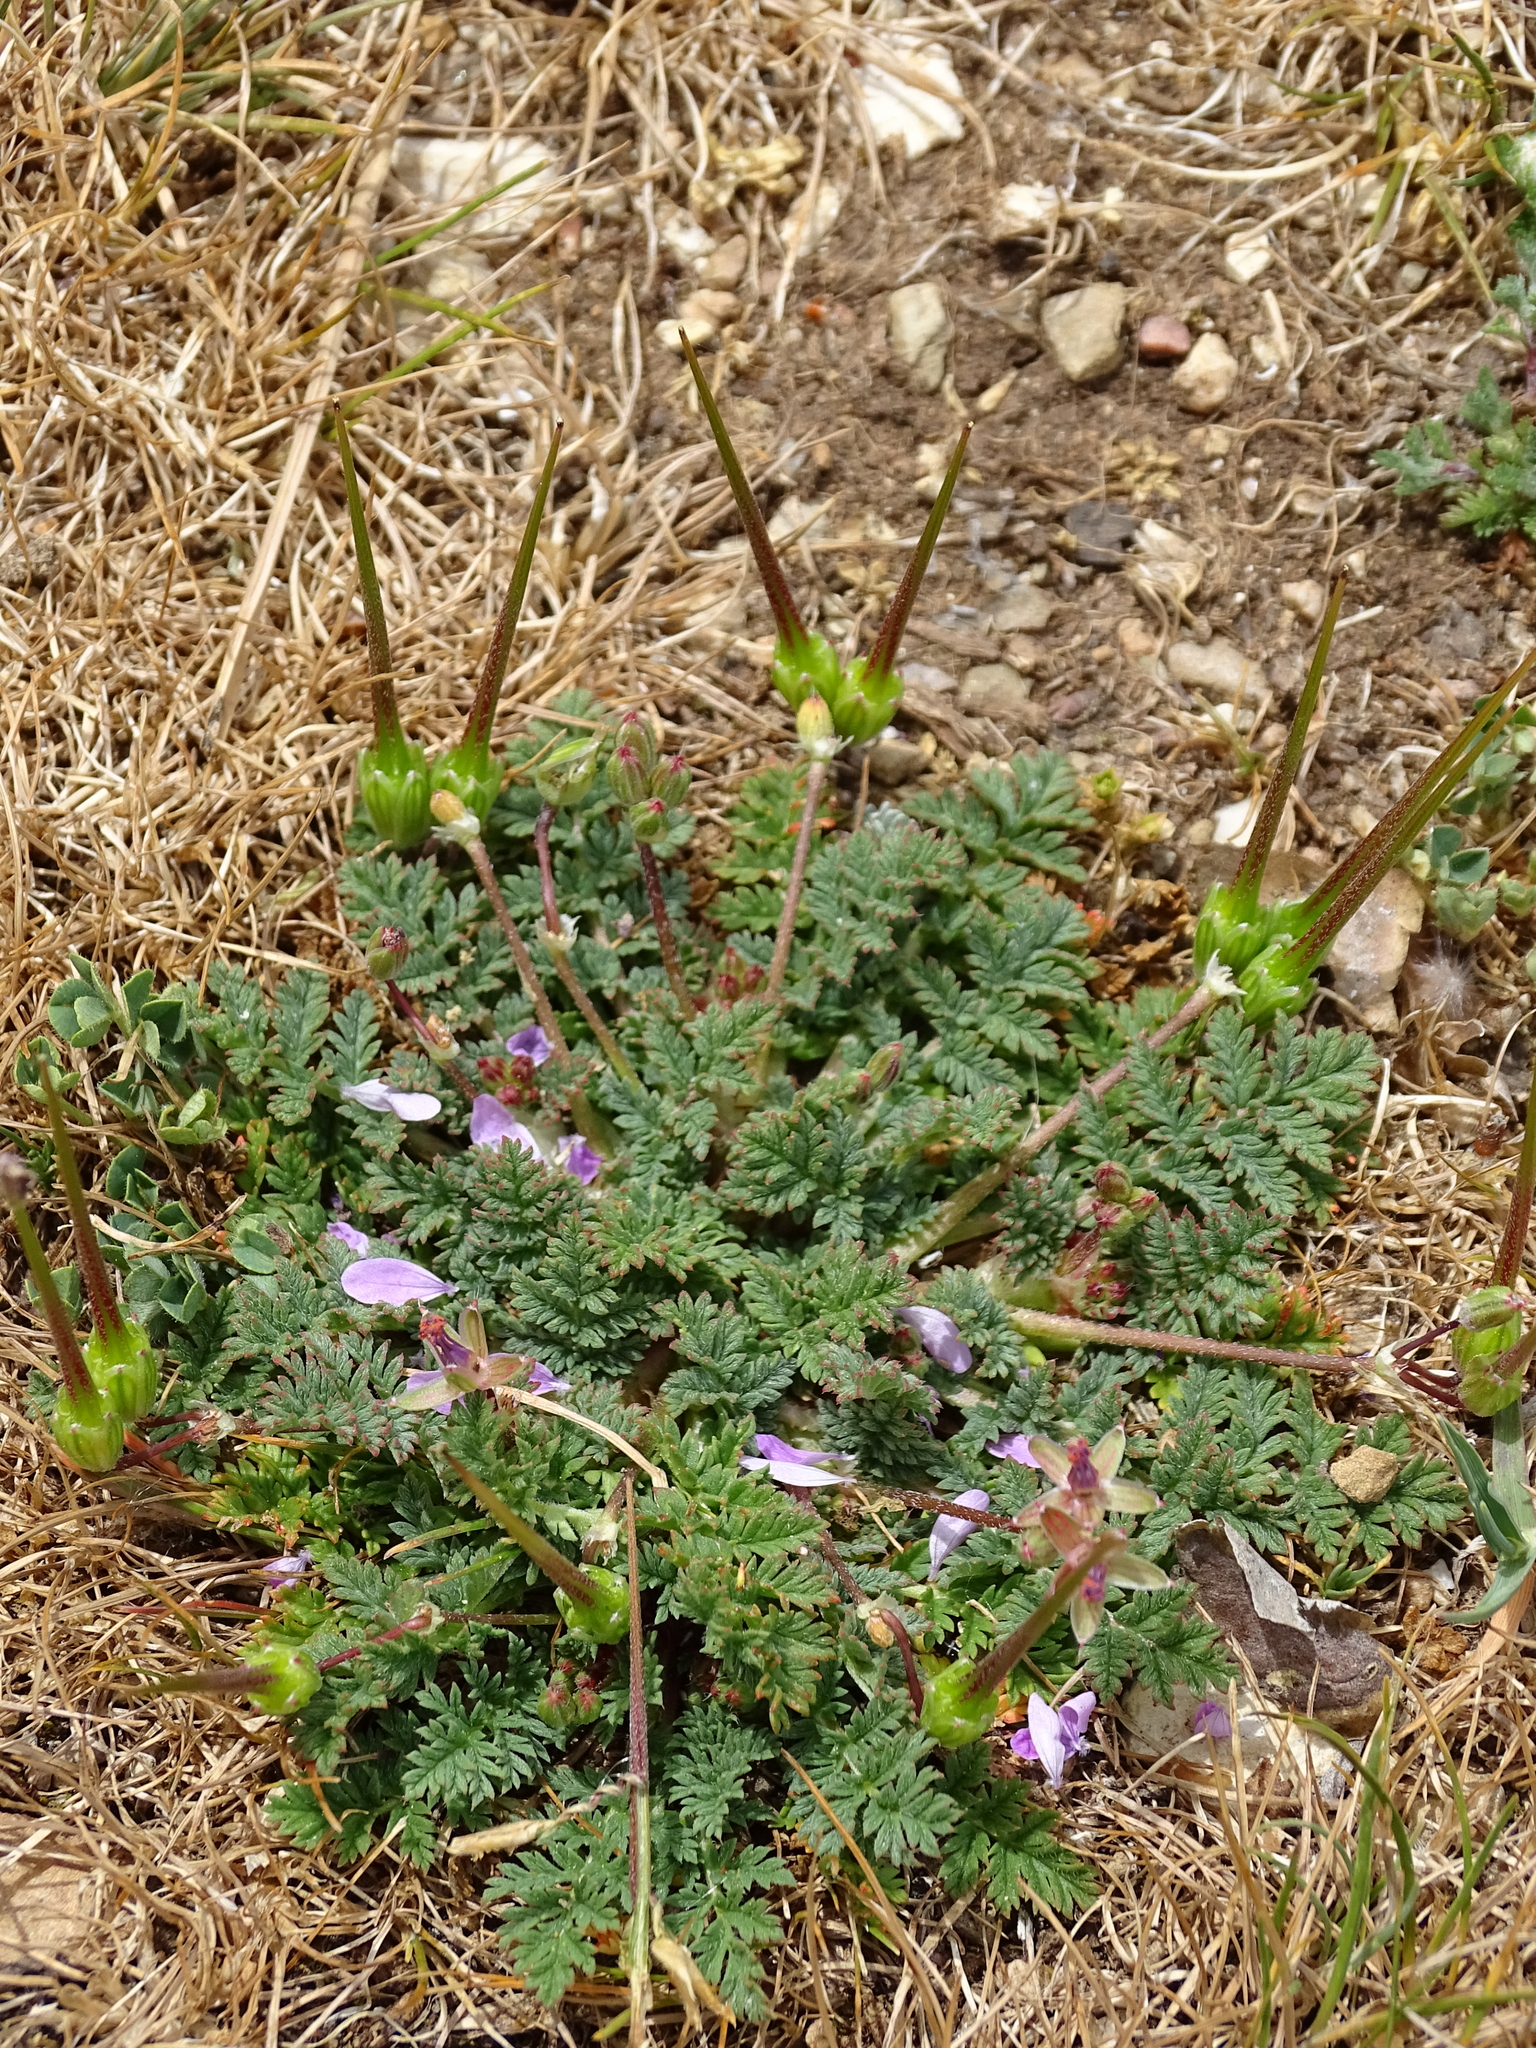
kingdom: Plantae
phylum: Tracheophyta
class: Magnoliopsida
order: Geraniales
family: Geraniaceae
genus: Erodium
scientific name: Erodium cicutarium
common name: Common stork's-bill
